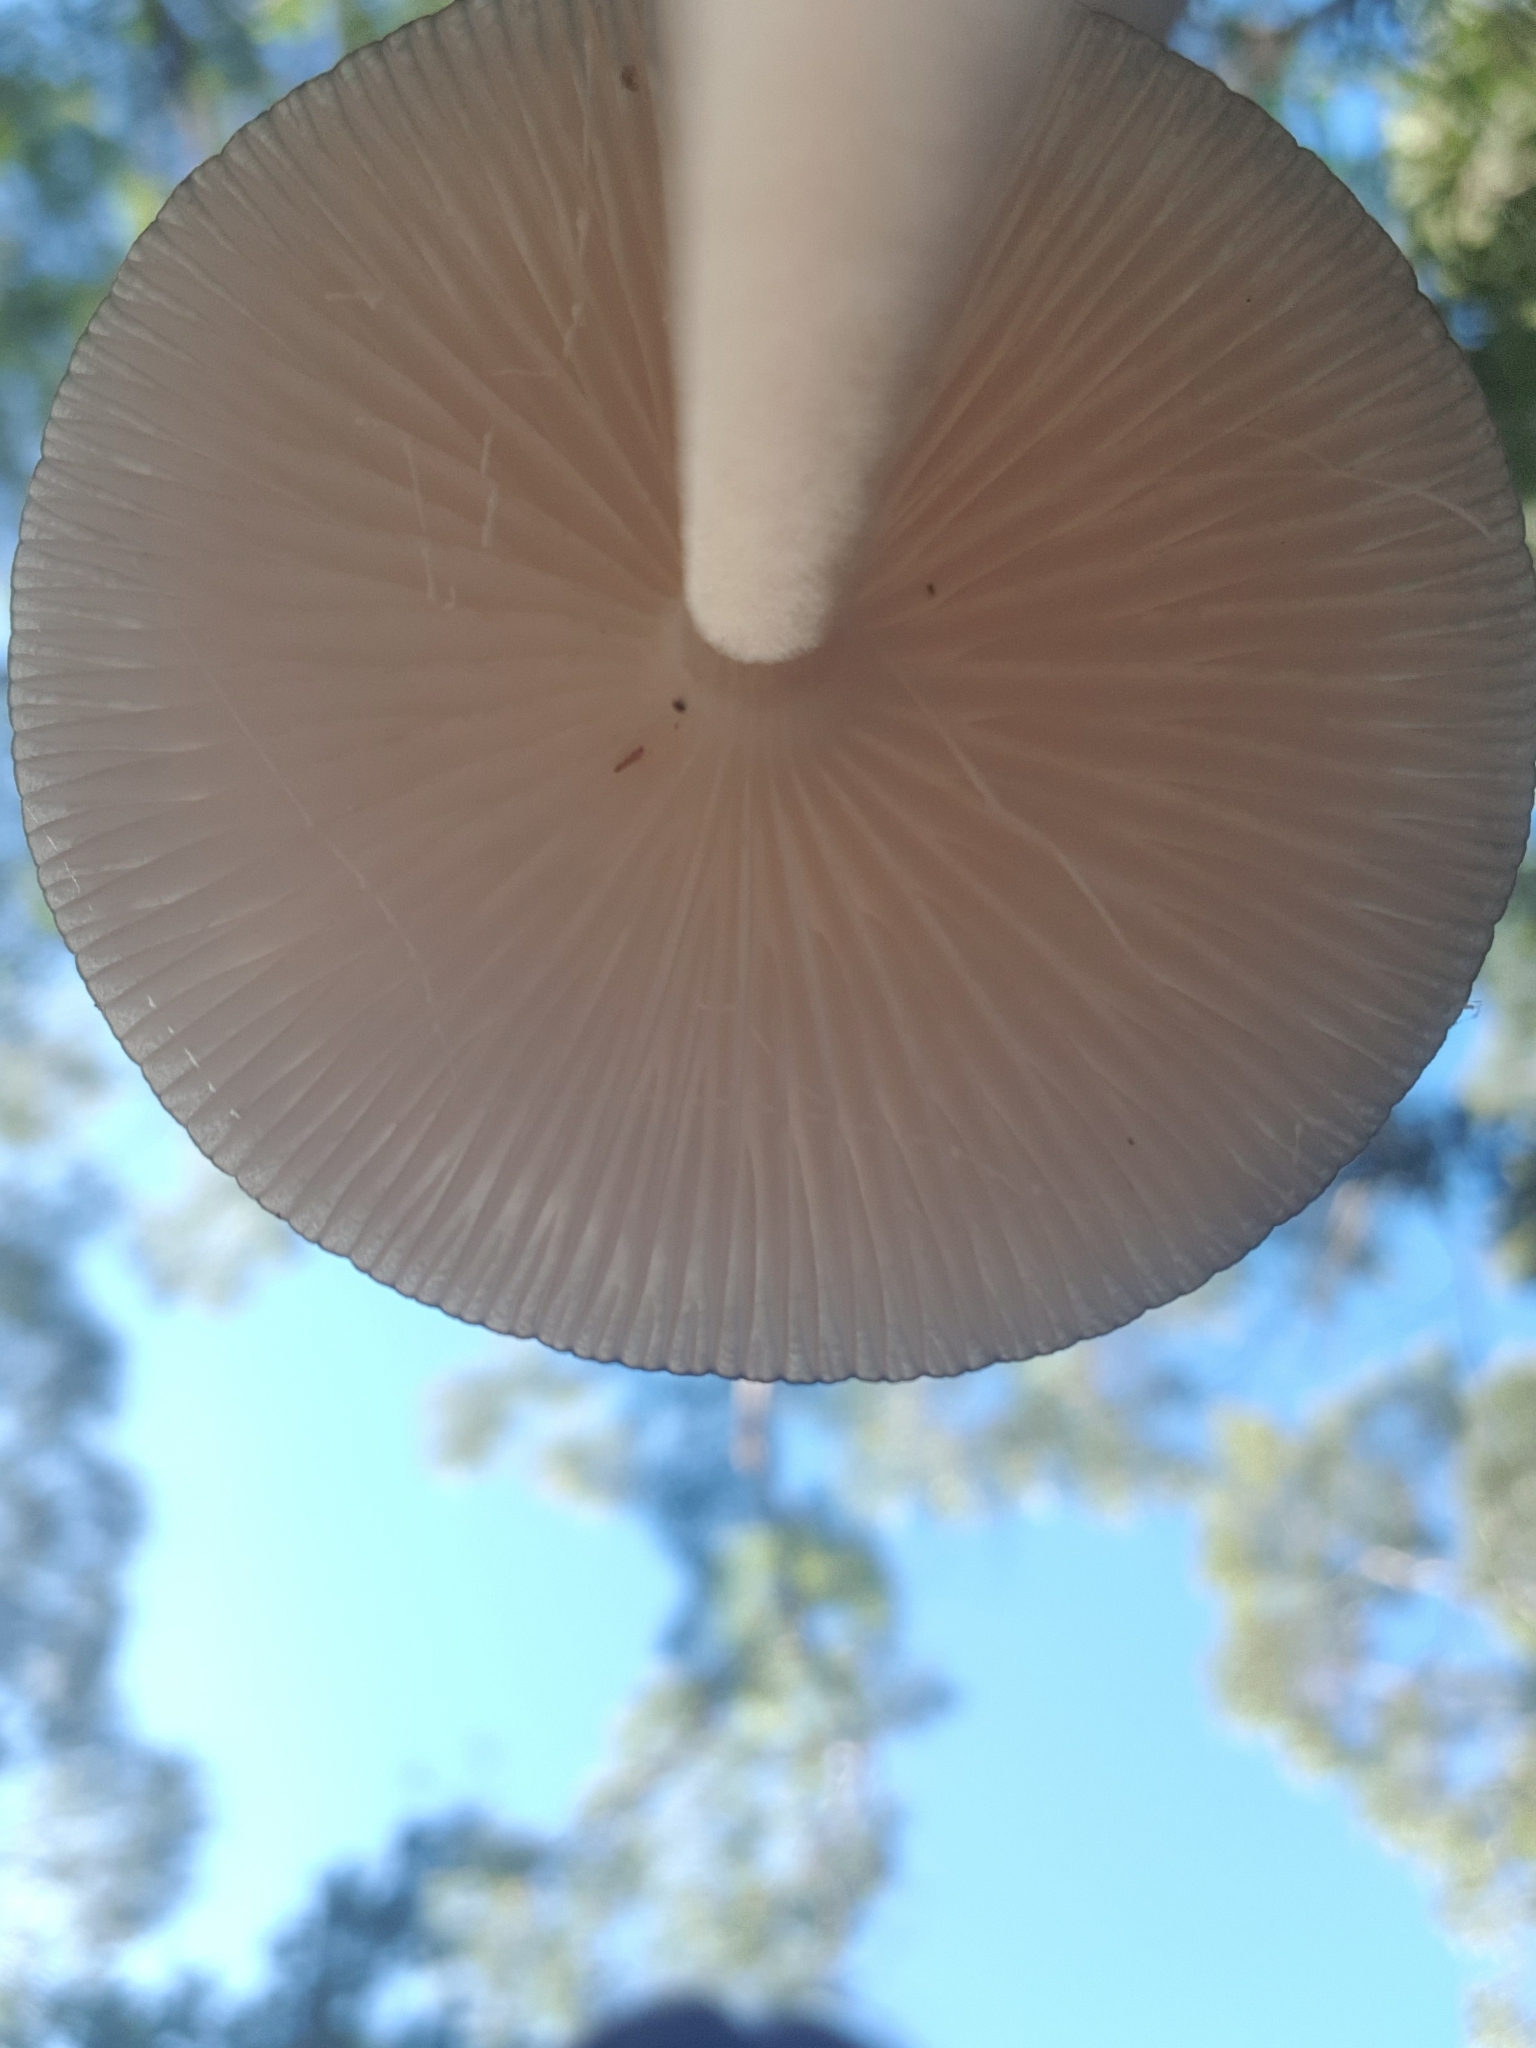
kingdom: Fungi
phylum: Basidiomycota
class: Agaricomycetes
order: Agaricales
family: Physalacriaceae
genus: Hymenopellis
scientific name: Hymenopellis radicata
